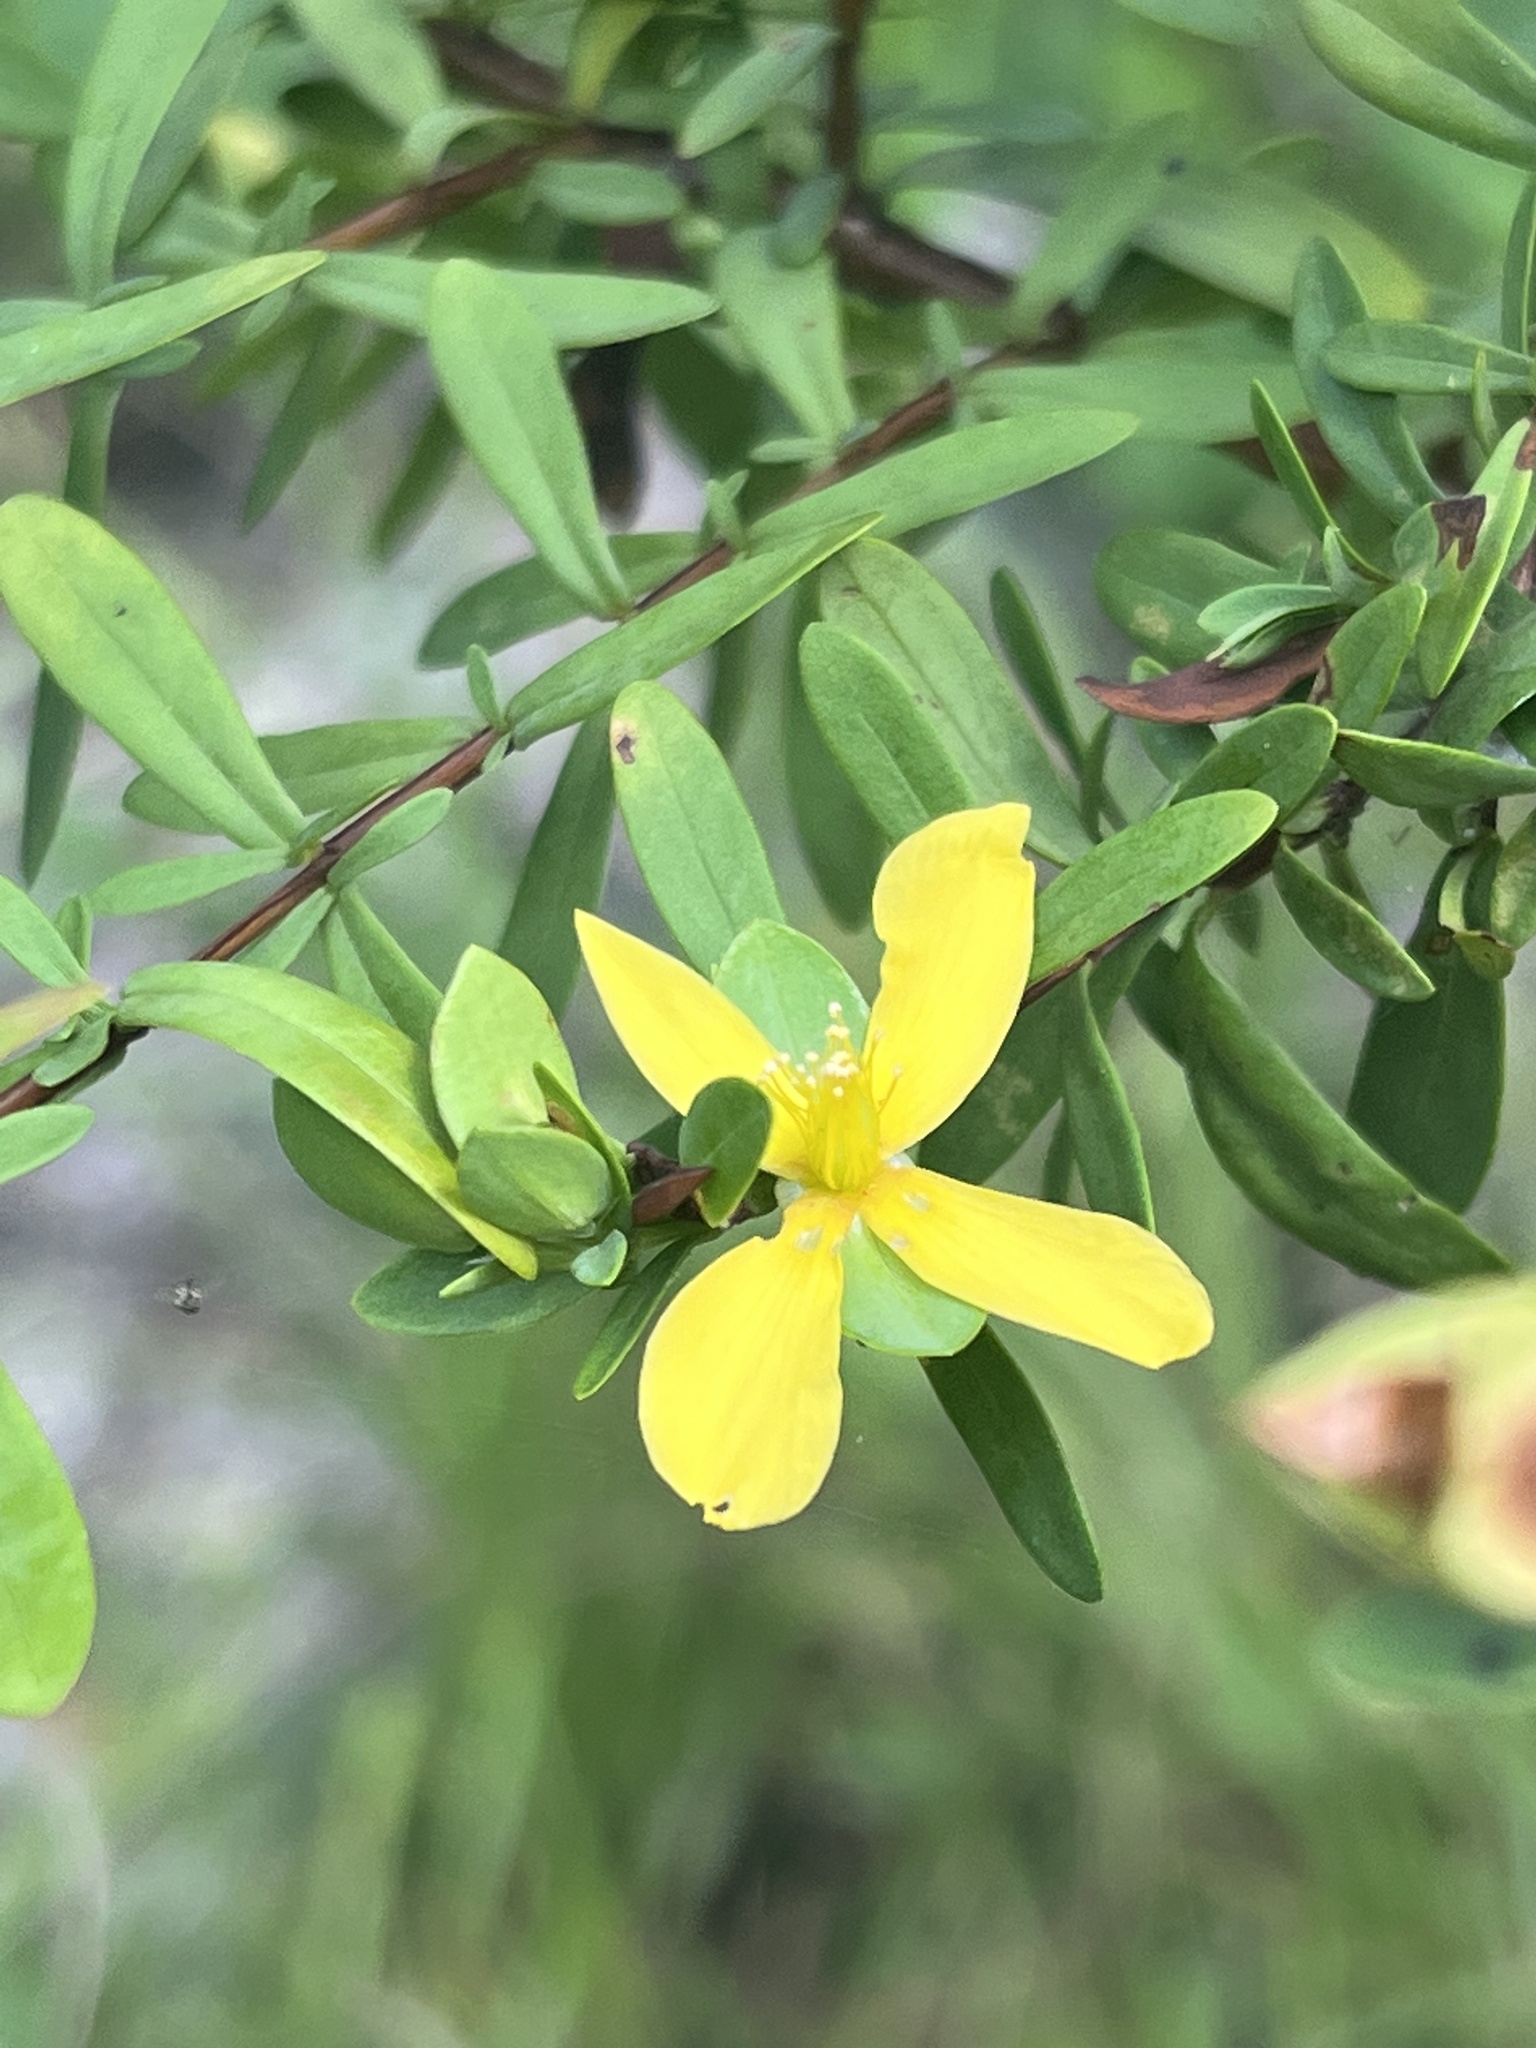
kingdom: Plantae
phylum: Tracheophyta
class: Magnoliopsida
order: Malpighiales
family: Hypericaceae
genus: Hypericum
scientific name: Hypericum hypericoides
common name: St. andrew's cross
